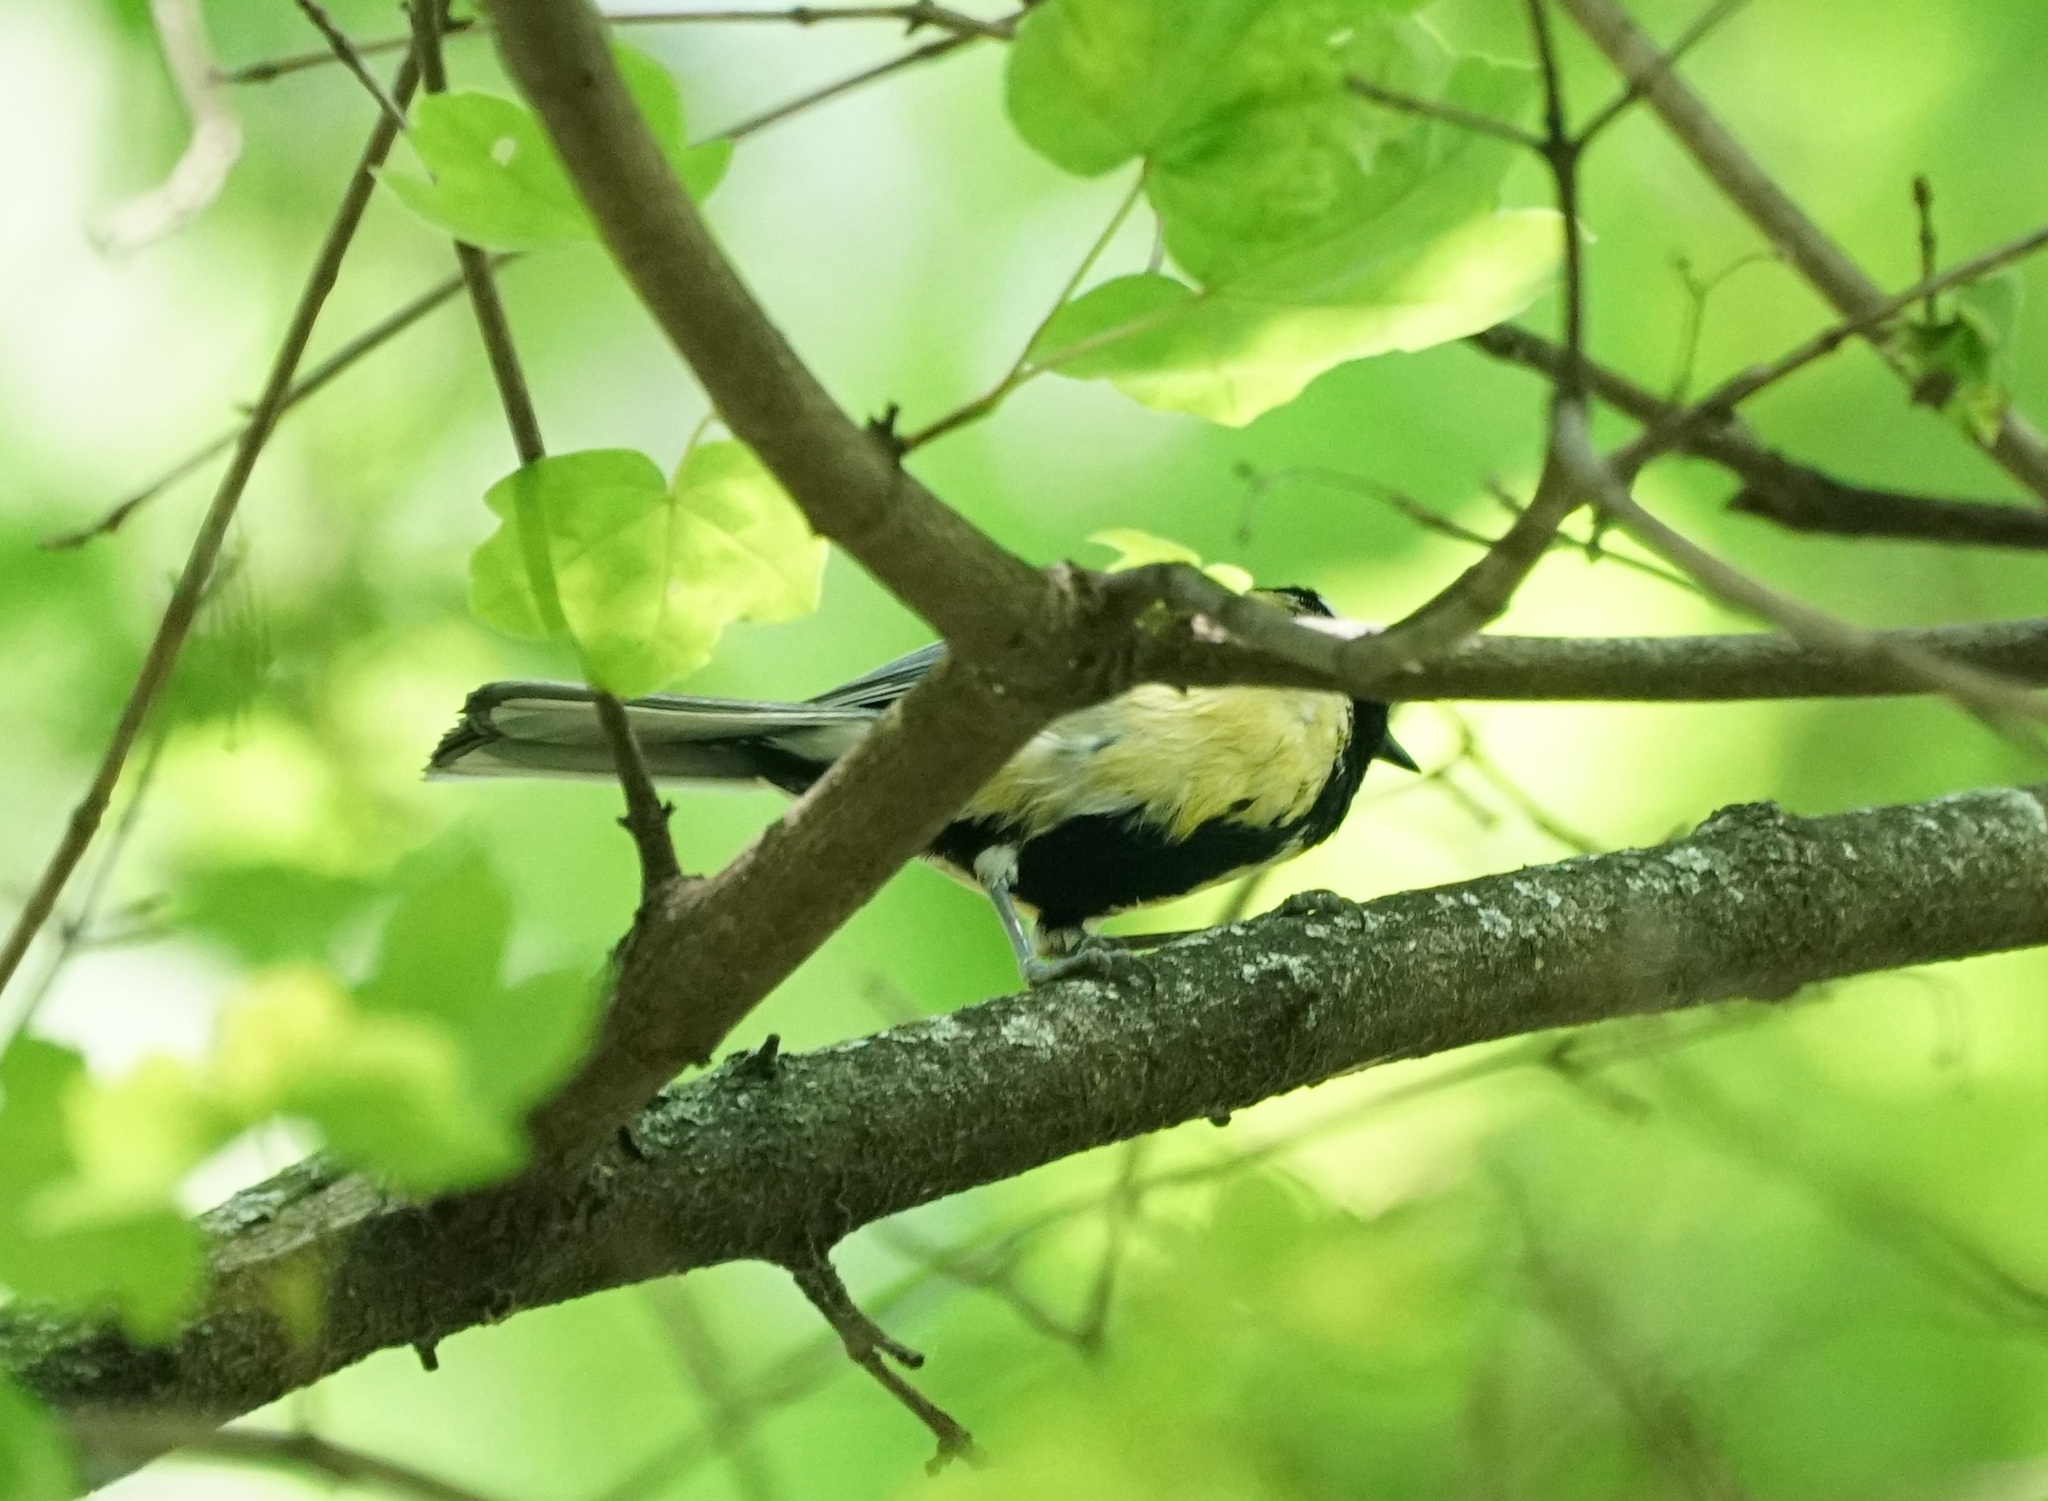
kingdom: Animalia
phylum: Chordata
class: Aves
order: Passeriformes
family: Paridae
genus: Parus
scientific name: Parus major
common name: Great tit
